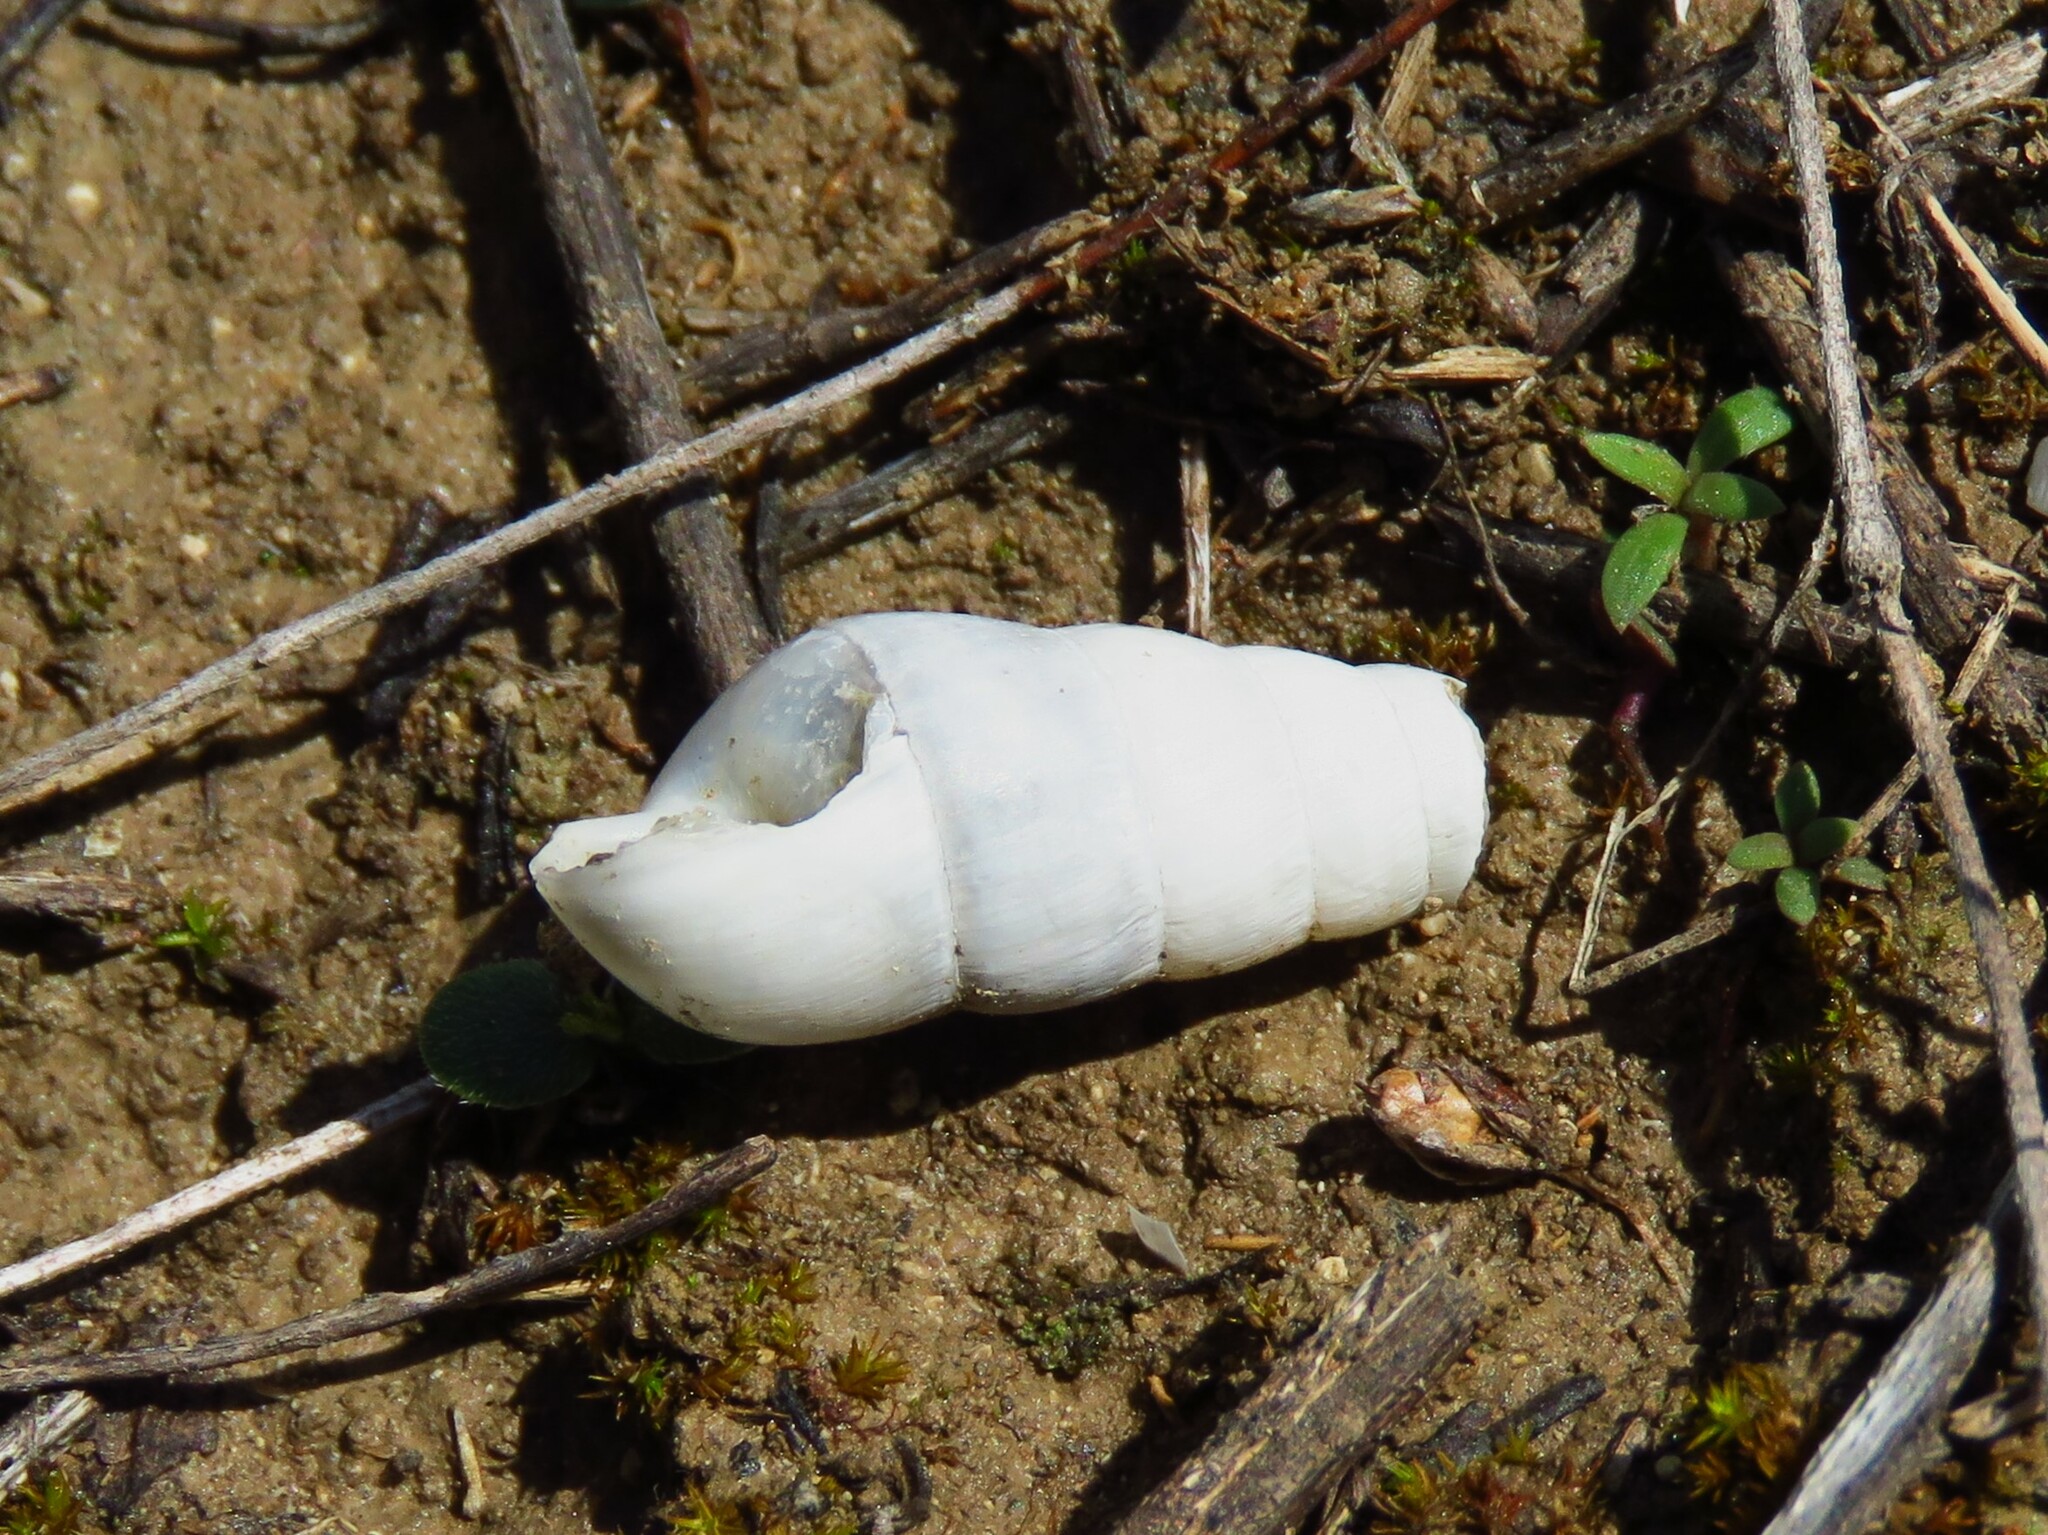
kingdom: Animalia
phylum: Mollusca
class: Gastropoda
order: Stylommatophora
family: Achatinidae
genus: Rumina
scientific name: Rumina decollata
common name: Decollate snail
